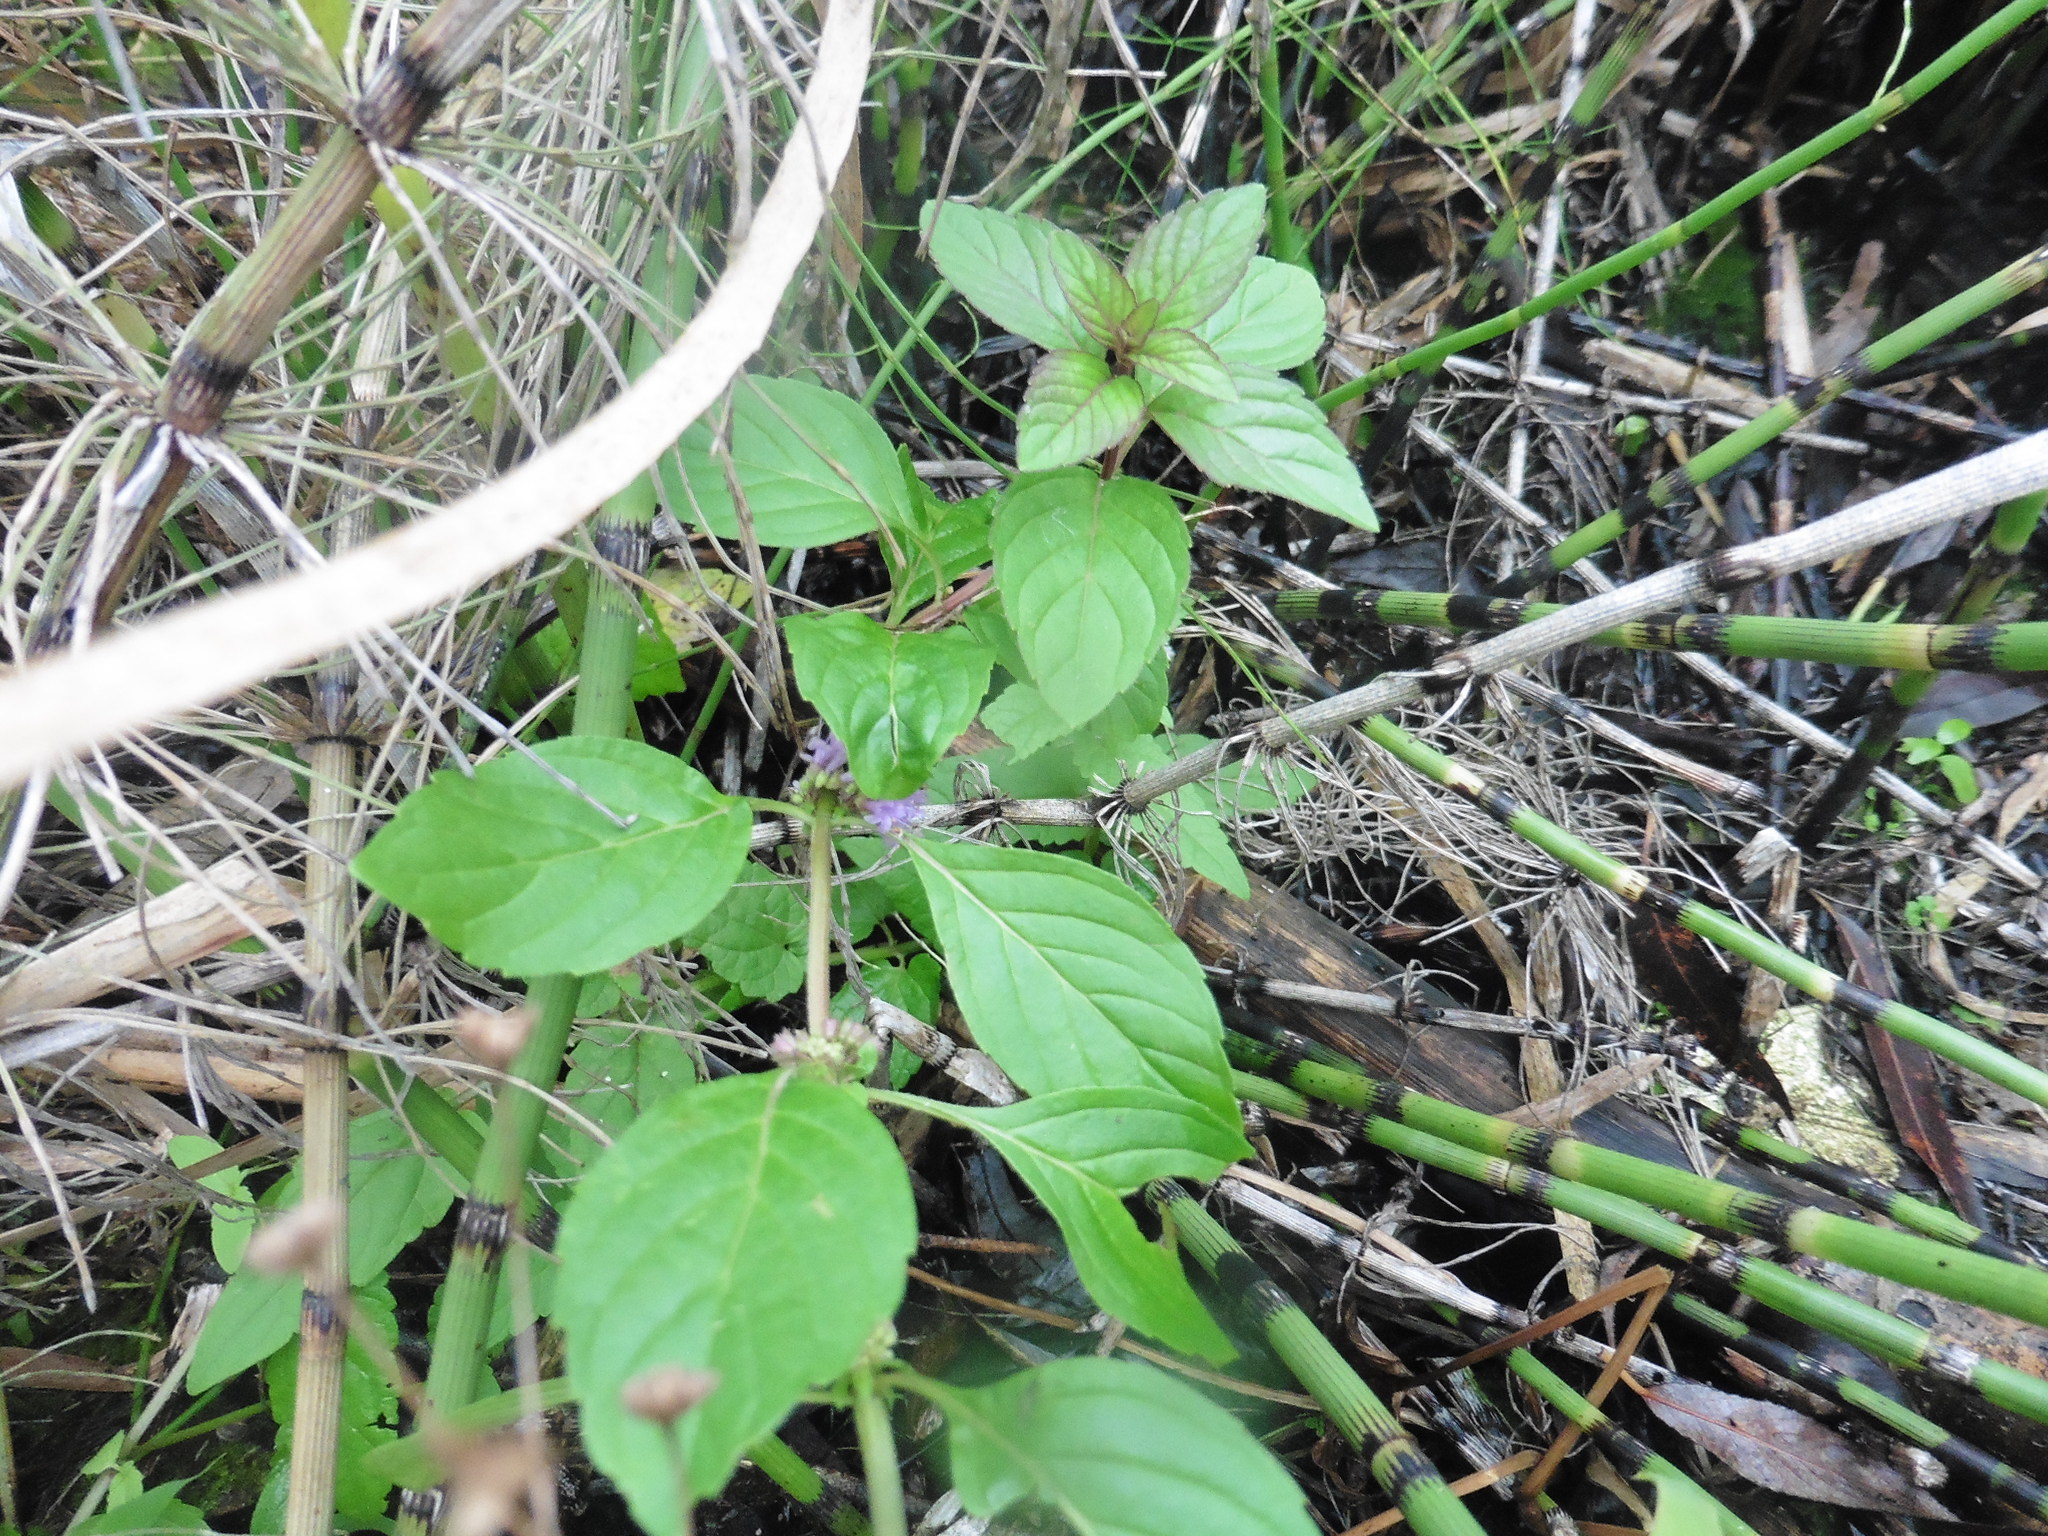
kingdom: Plantae
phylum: Tracheophyta
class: Magnoliopsida
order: Lamiales
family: Lamiaceae
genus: Mentha
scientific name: Mentha arvensis
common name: Corn mint
